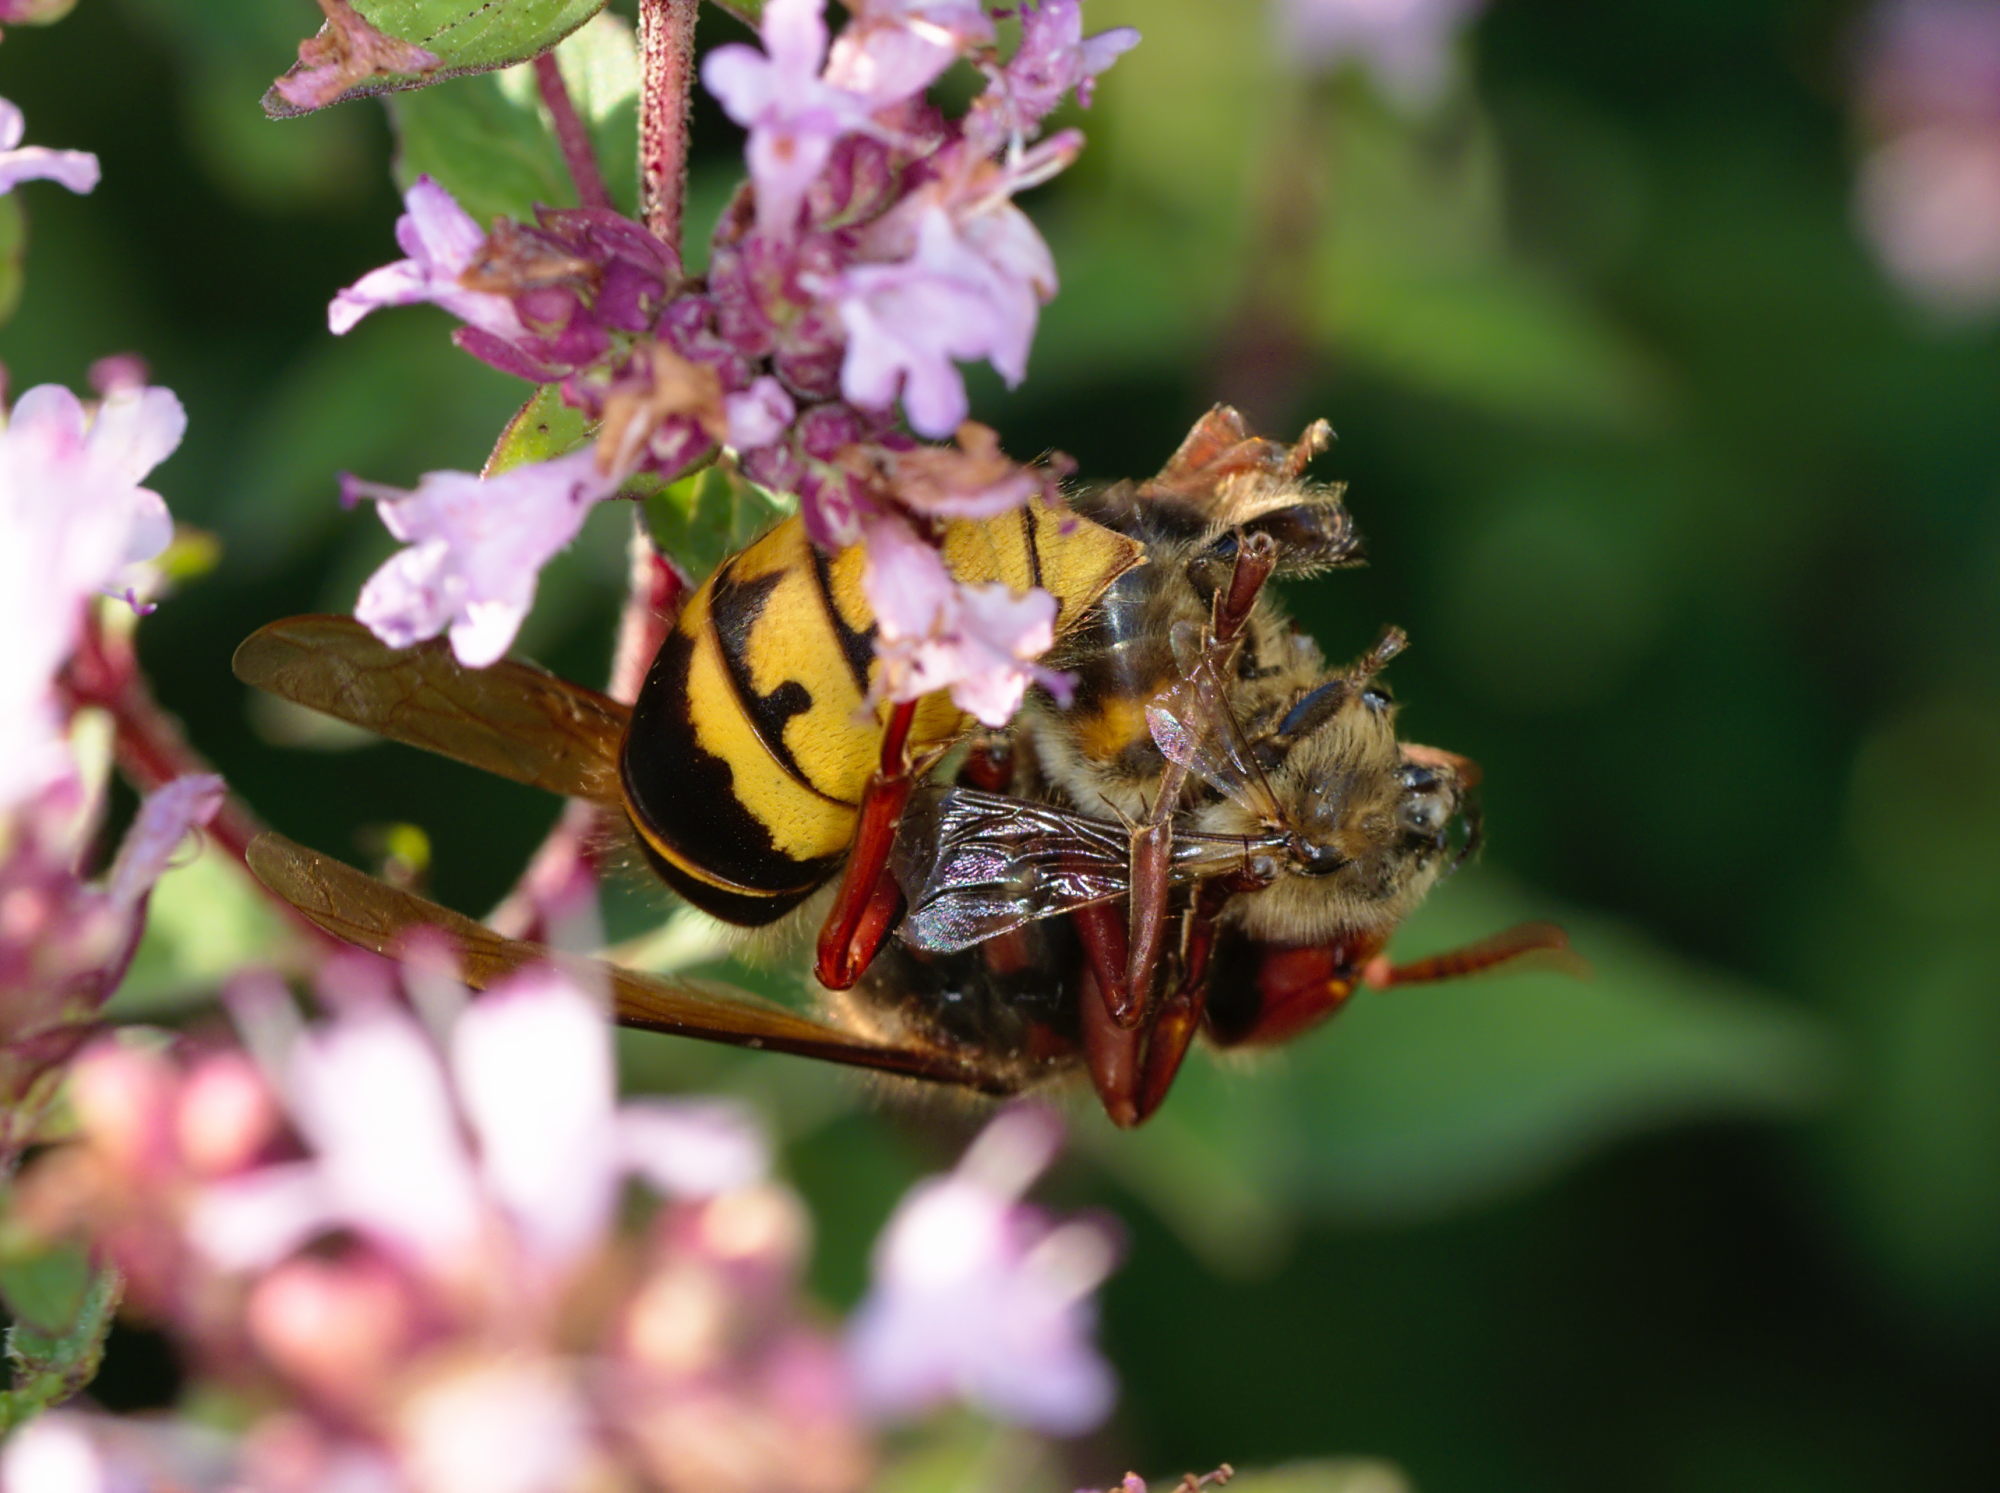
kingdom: Animalia
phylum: Arthropoda
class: Insecta
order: Hymenoptera
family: Vespidae
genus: Vespa
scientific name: Vespa crabro
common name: Hornet
